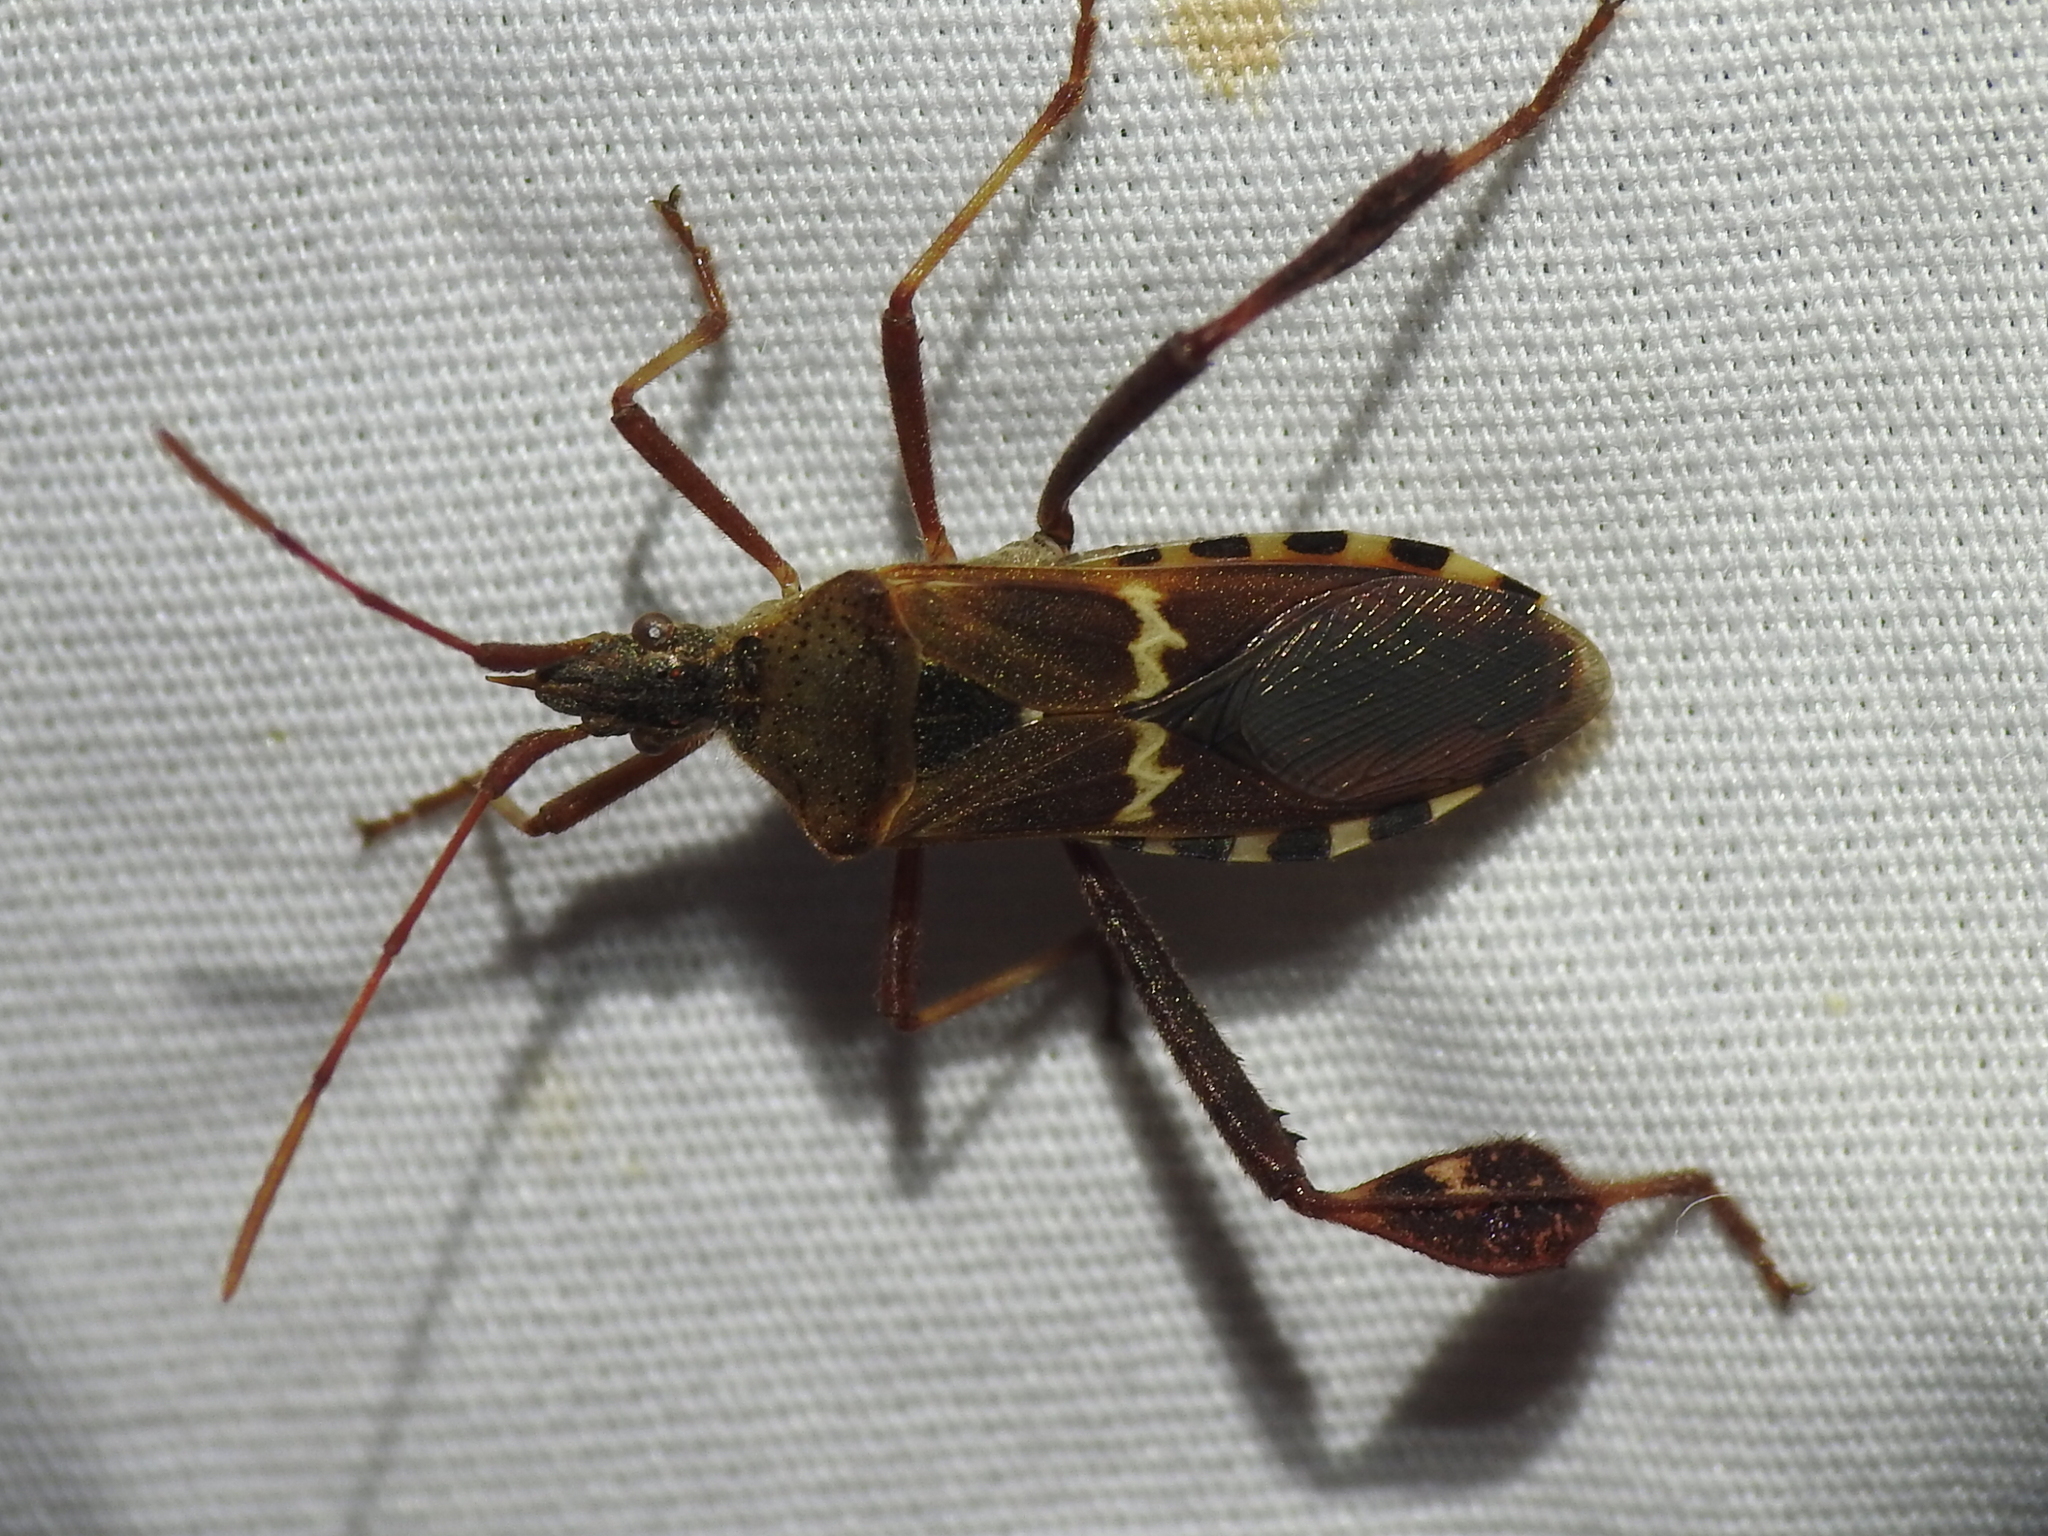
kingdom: Animalia
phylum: Arthropoda
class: Insecta
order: Hemiptera
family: Coreidae
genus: Leptoglossus
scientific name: Leptoglossus clypealis
